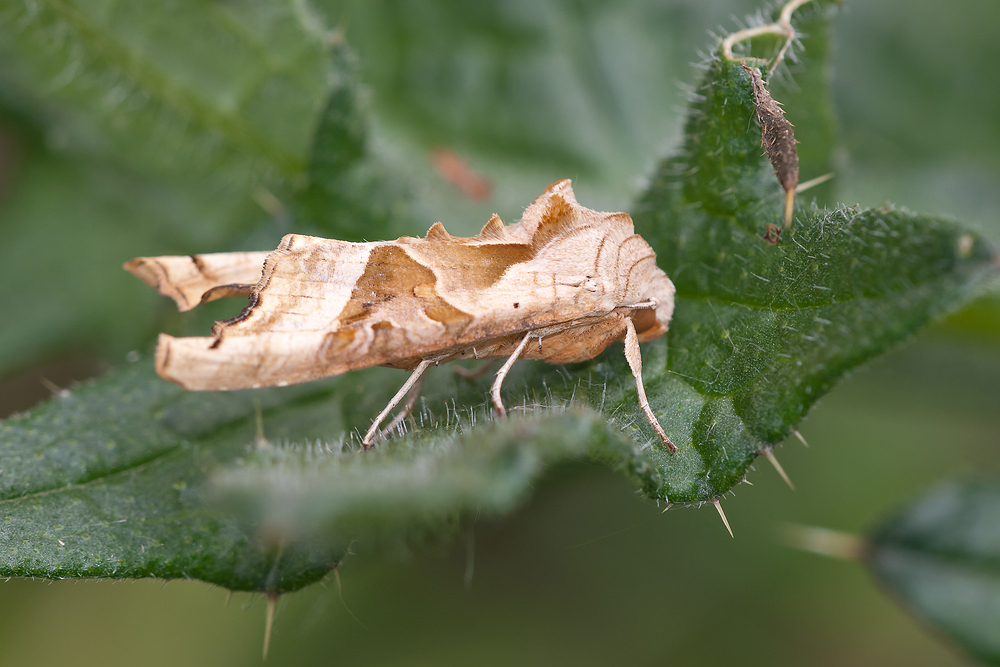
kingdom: Animalia
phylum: Arthropoda
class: Insecta
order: Lepidoptera
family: Noctuidae
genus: Phlogophora
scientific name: Phlogophora meticulosa
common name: Angle shades
